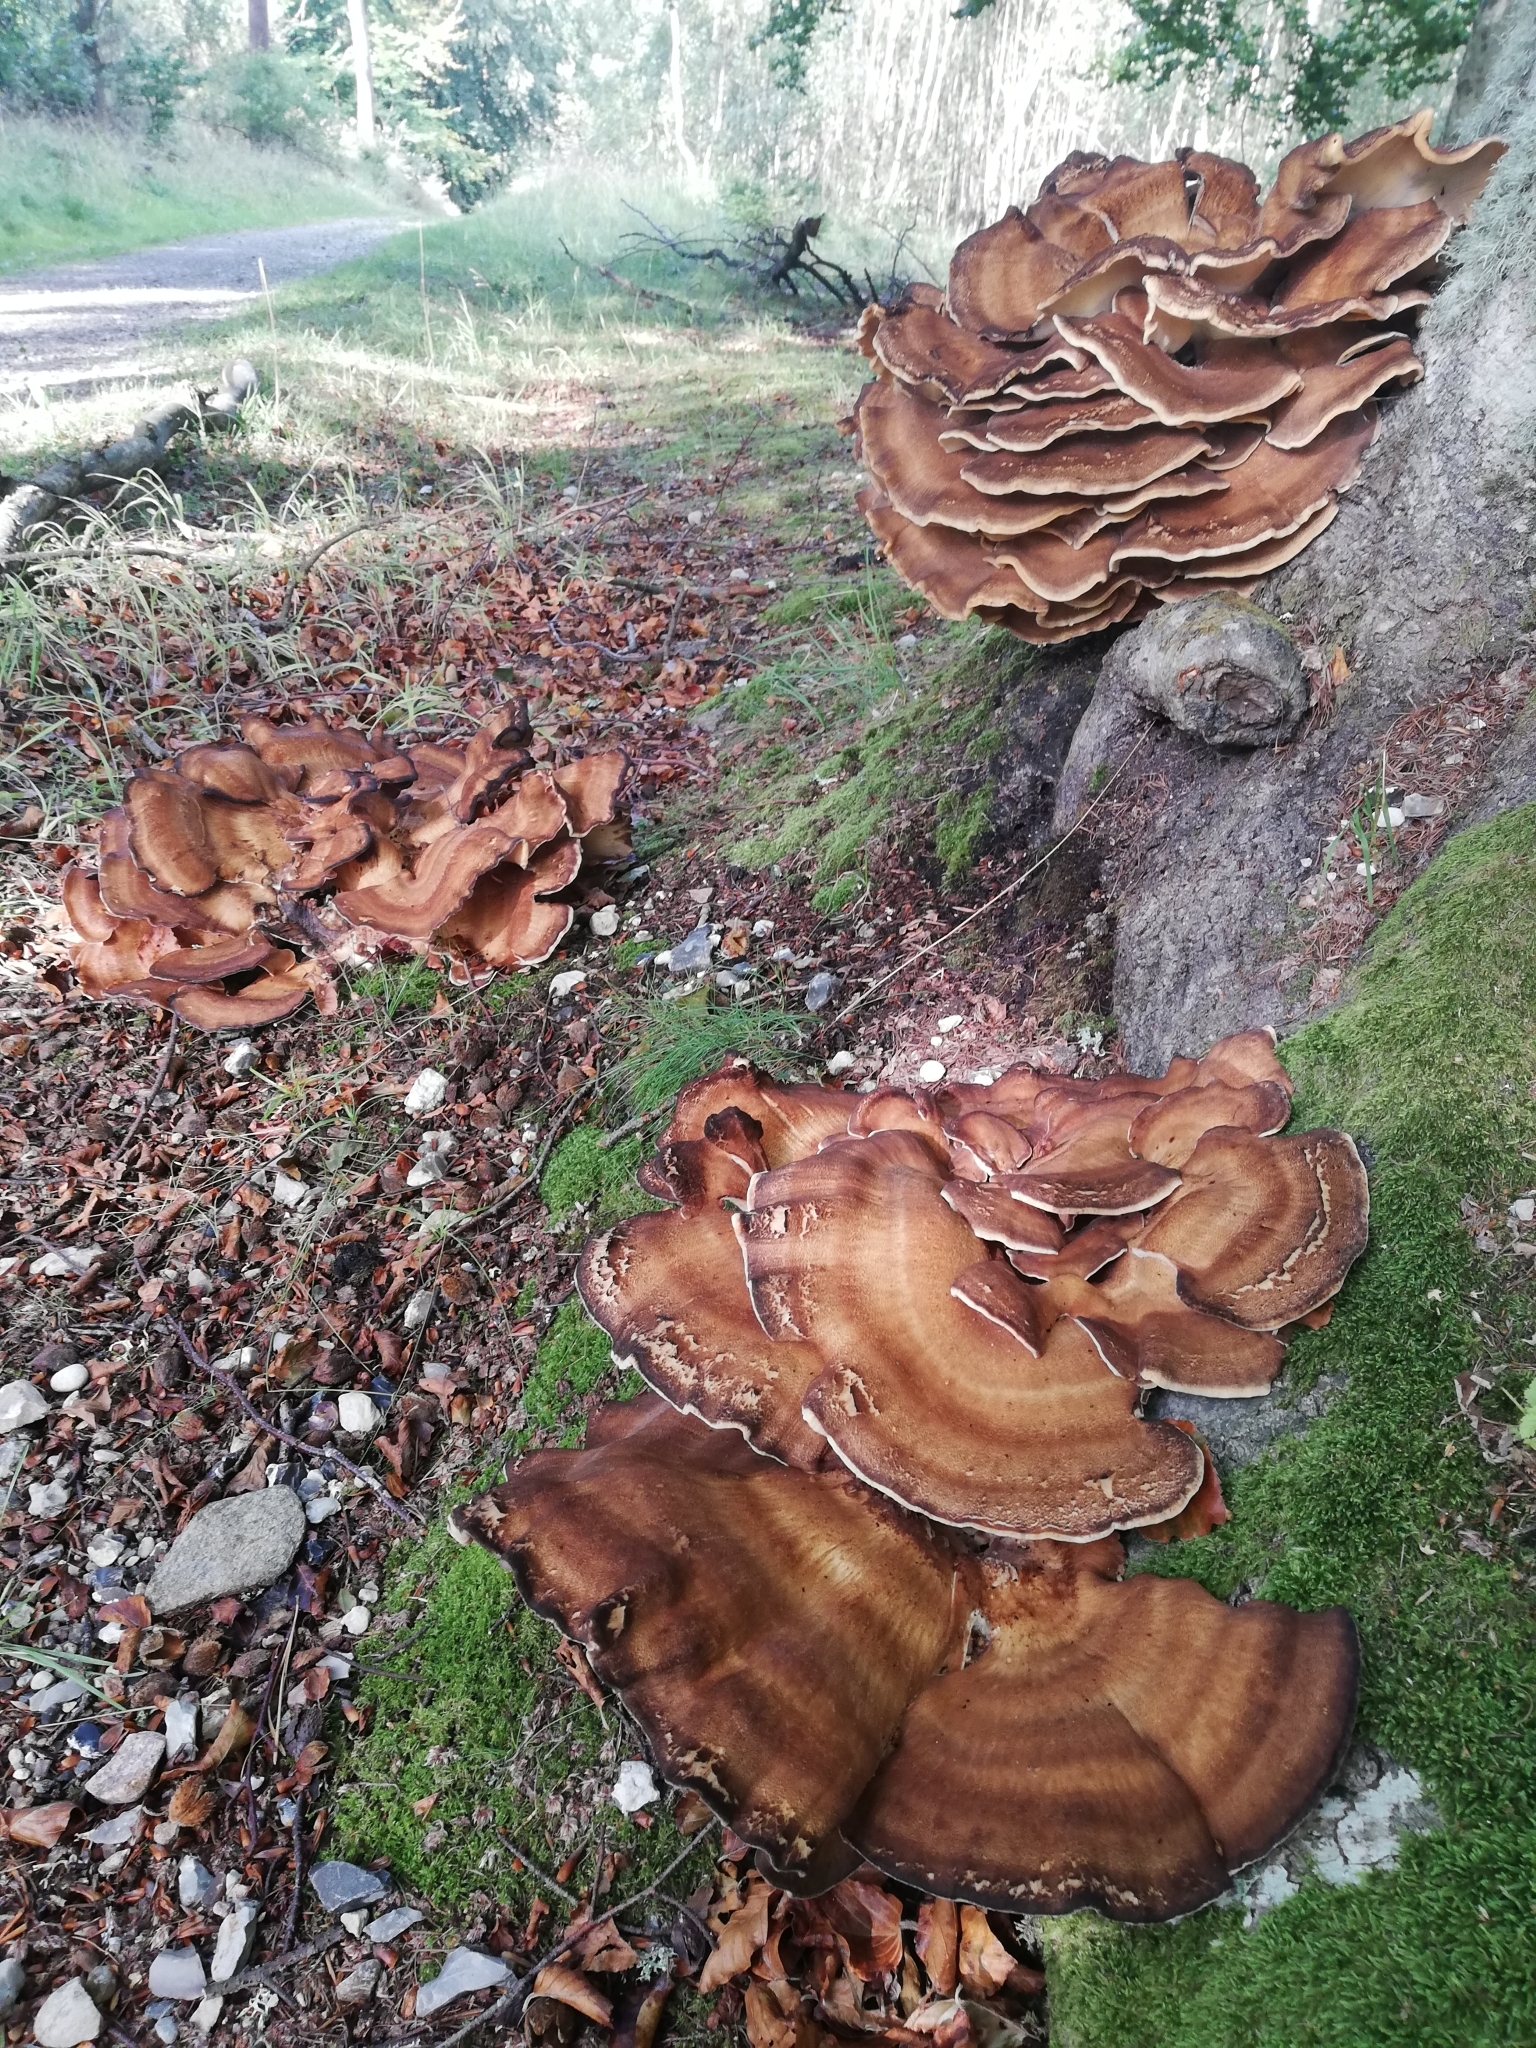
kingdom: Fungi
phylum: Basidiomycota
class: Agaricomycetes
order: Polyporales
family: Meripilaceae
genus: Meripilus
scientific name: Meripilus giganteus
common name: Giant polypore
